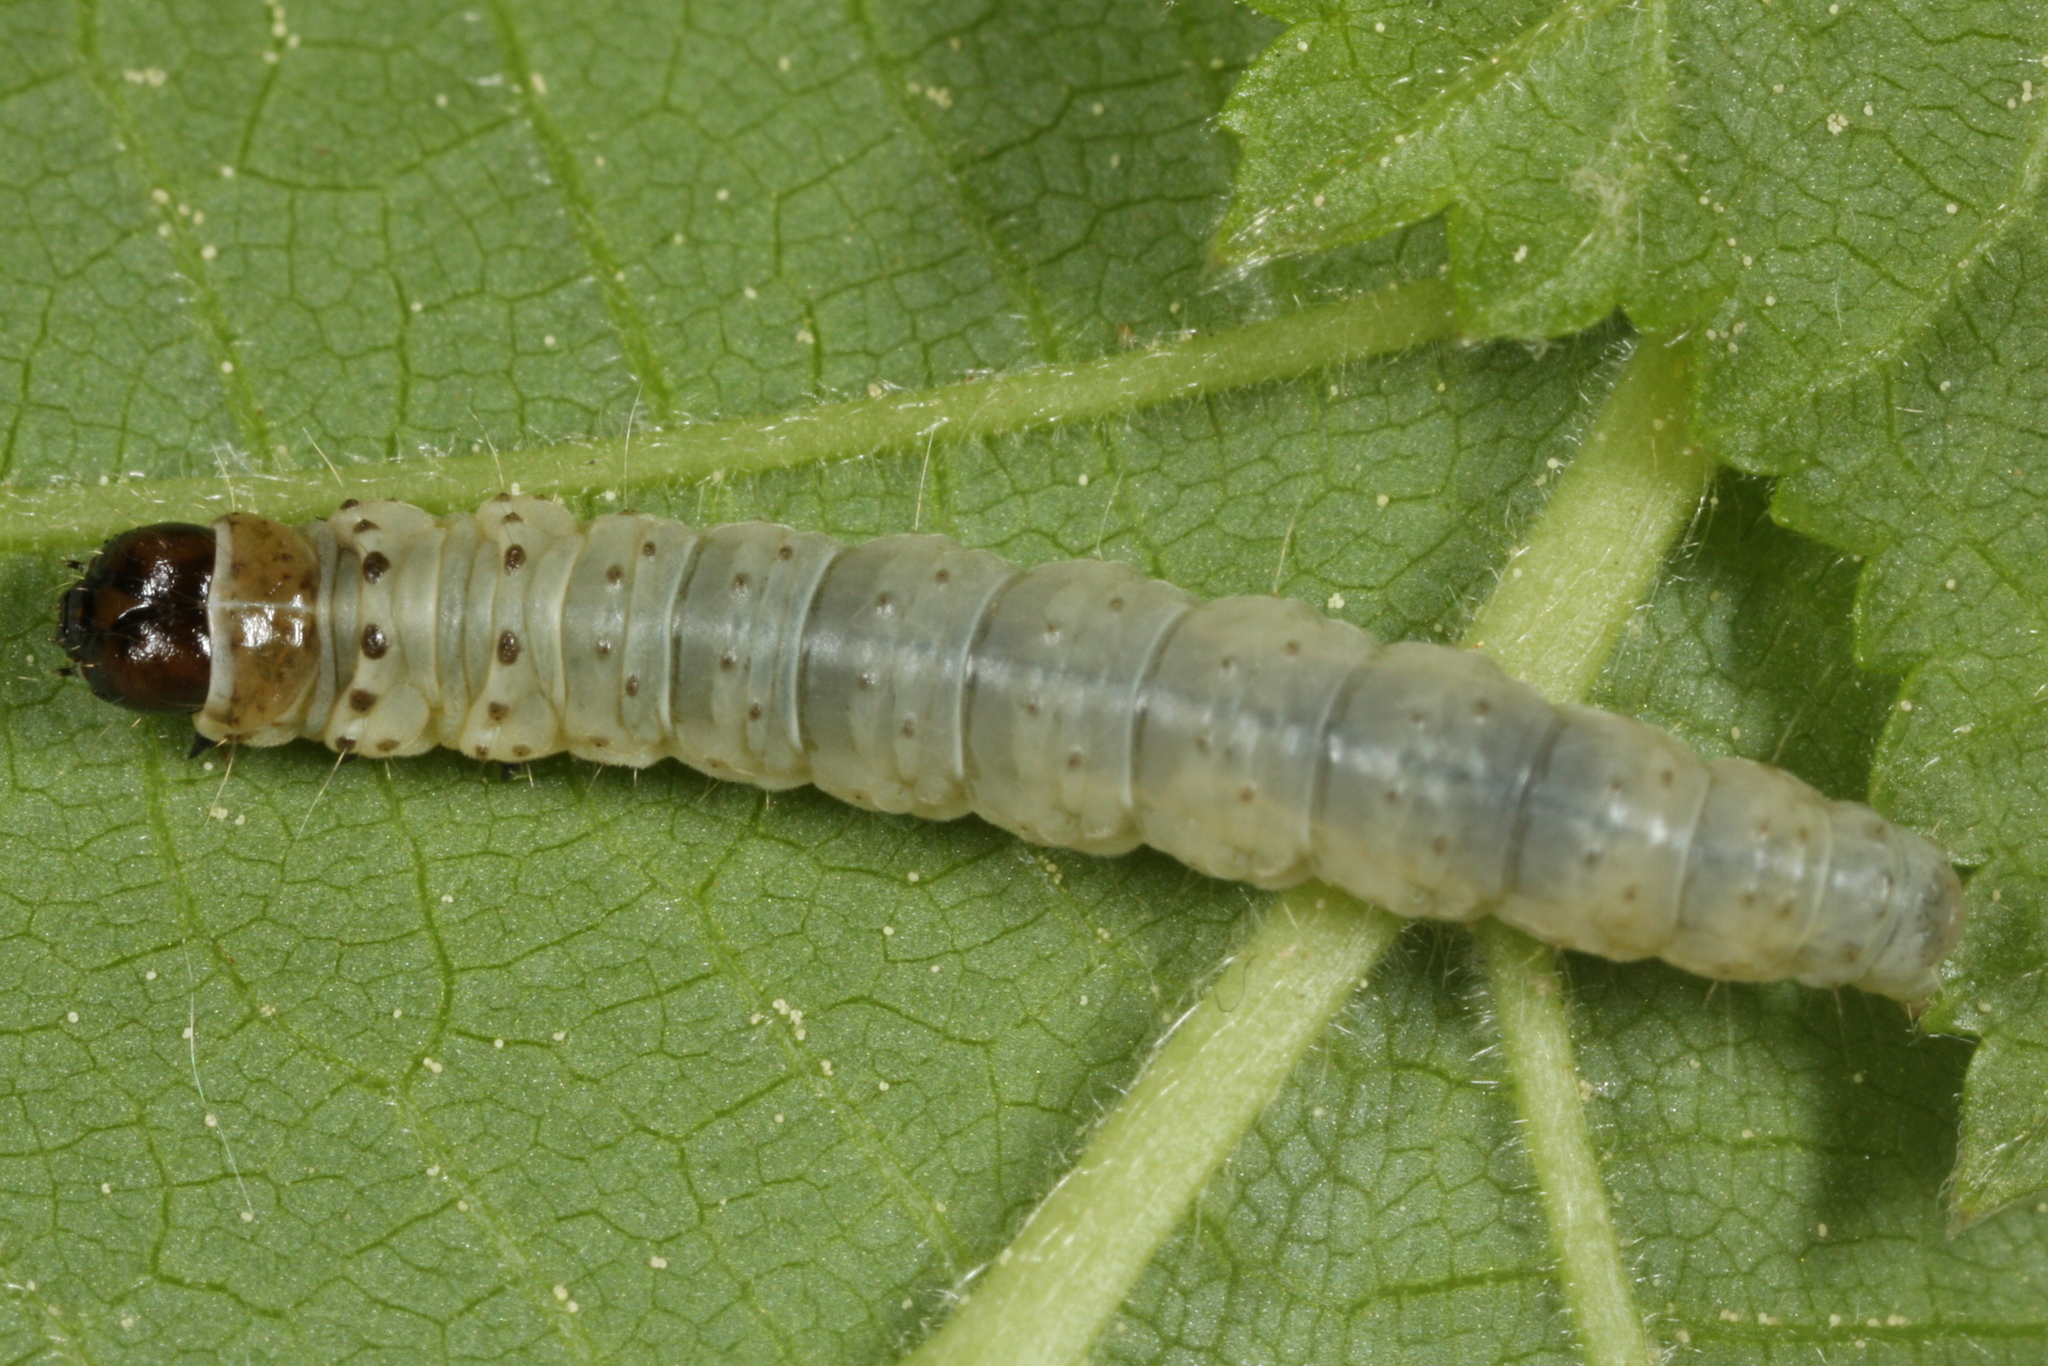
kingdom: Animalia
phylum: Arthropoda
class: Insecta
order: Lepidoptera
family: Tortricidae
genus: Tortrix
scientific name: Tortrix viridana
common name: Green oak tortrix
